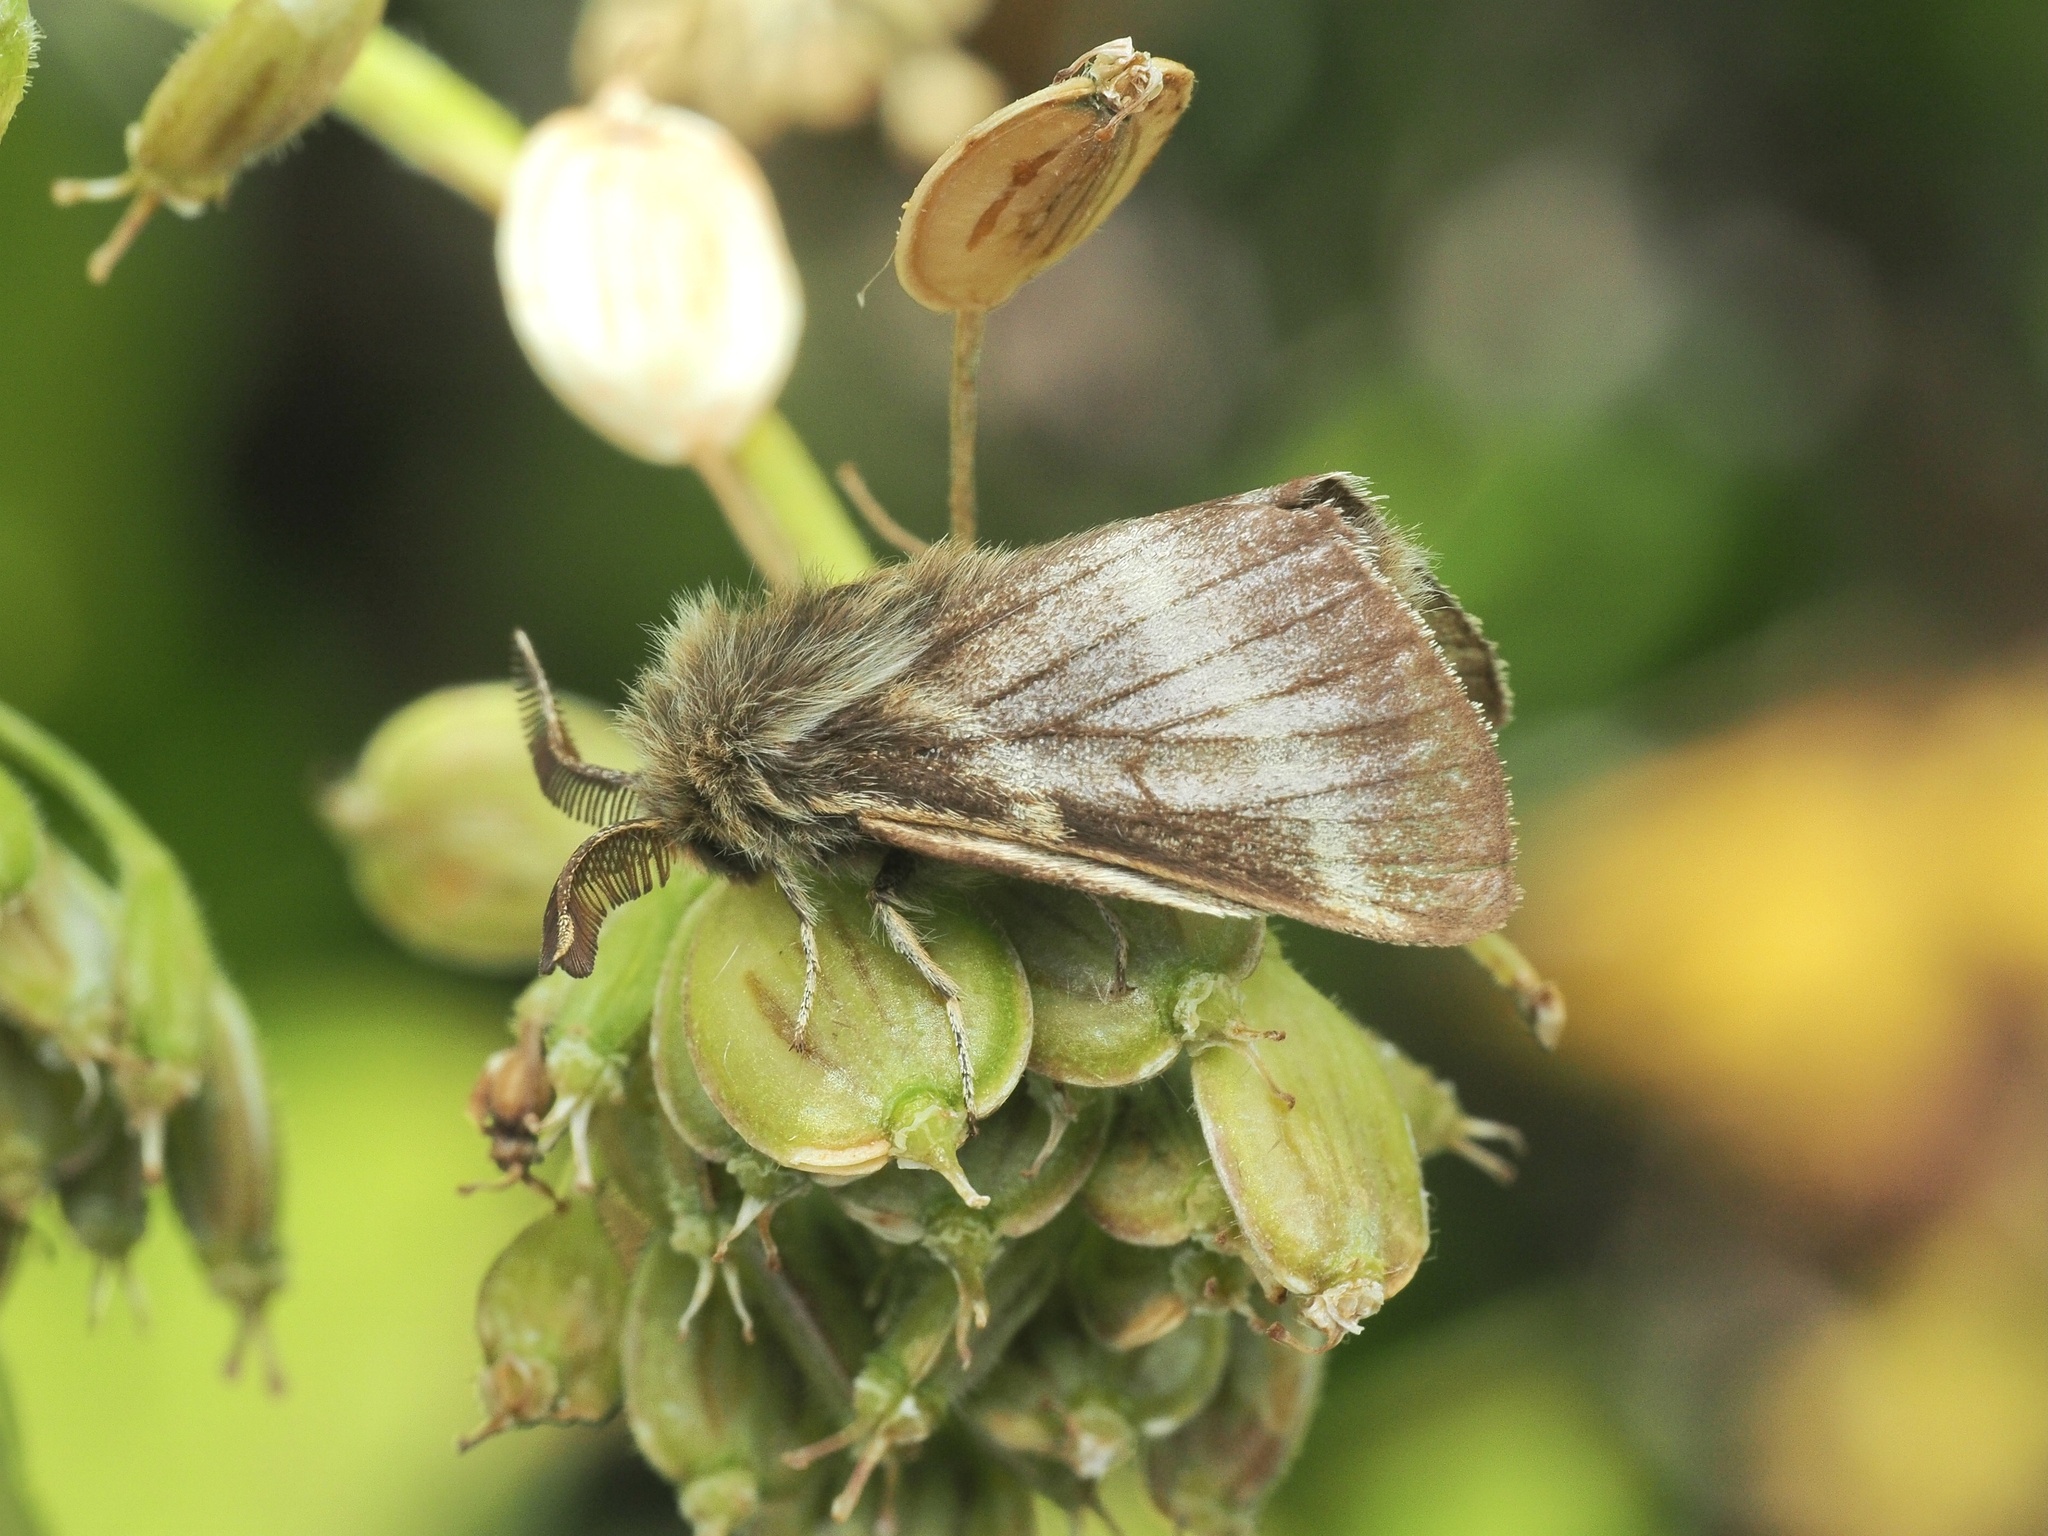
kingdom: Animalia
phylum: Arthropoda
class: Insecta
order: Lepidoptera
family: Lasiocampidae
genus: Malacosoma
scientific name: Malacosoma alpicola
